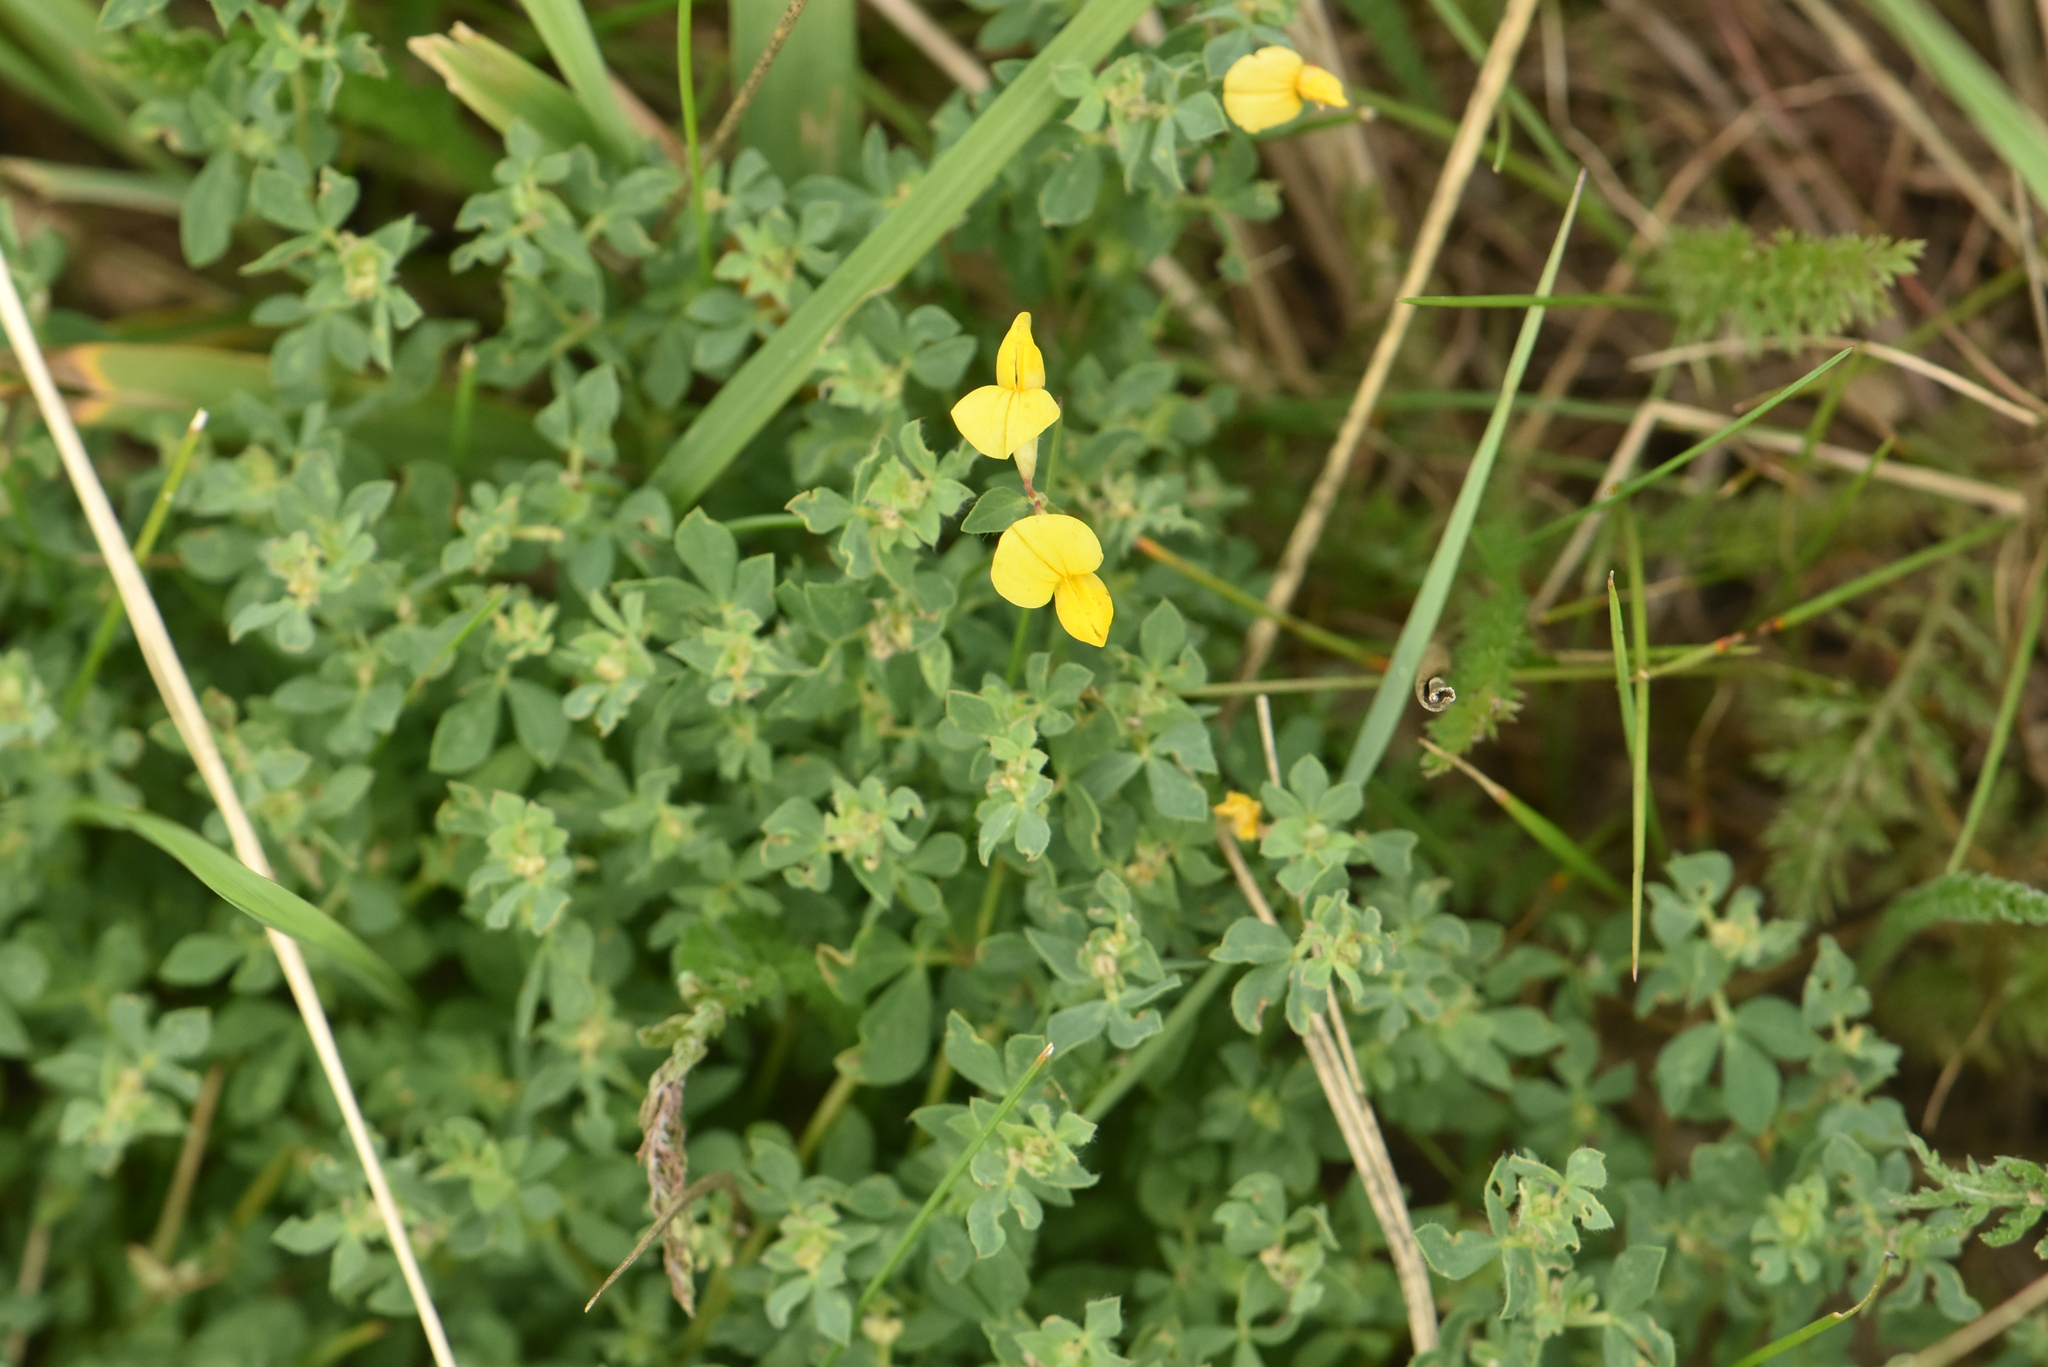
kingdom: Plantae
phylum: Tracheophyta
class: Magnoliopsida
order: Fabales
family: Fabaceae
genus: Lotus
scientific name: Lotus corniculatus
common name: Common bird's-foot-trefoil
